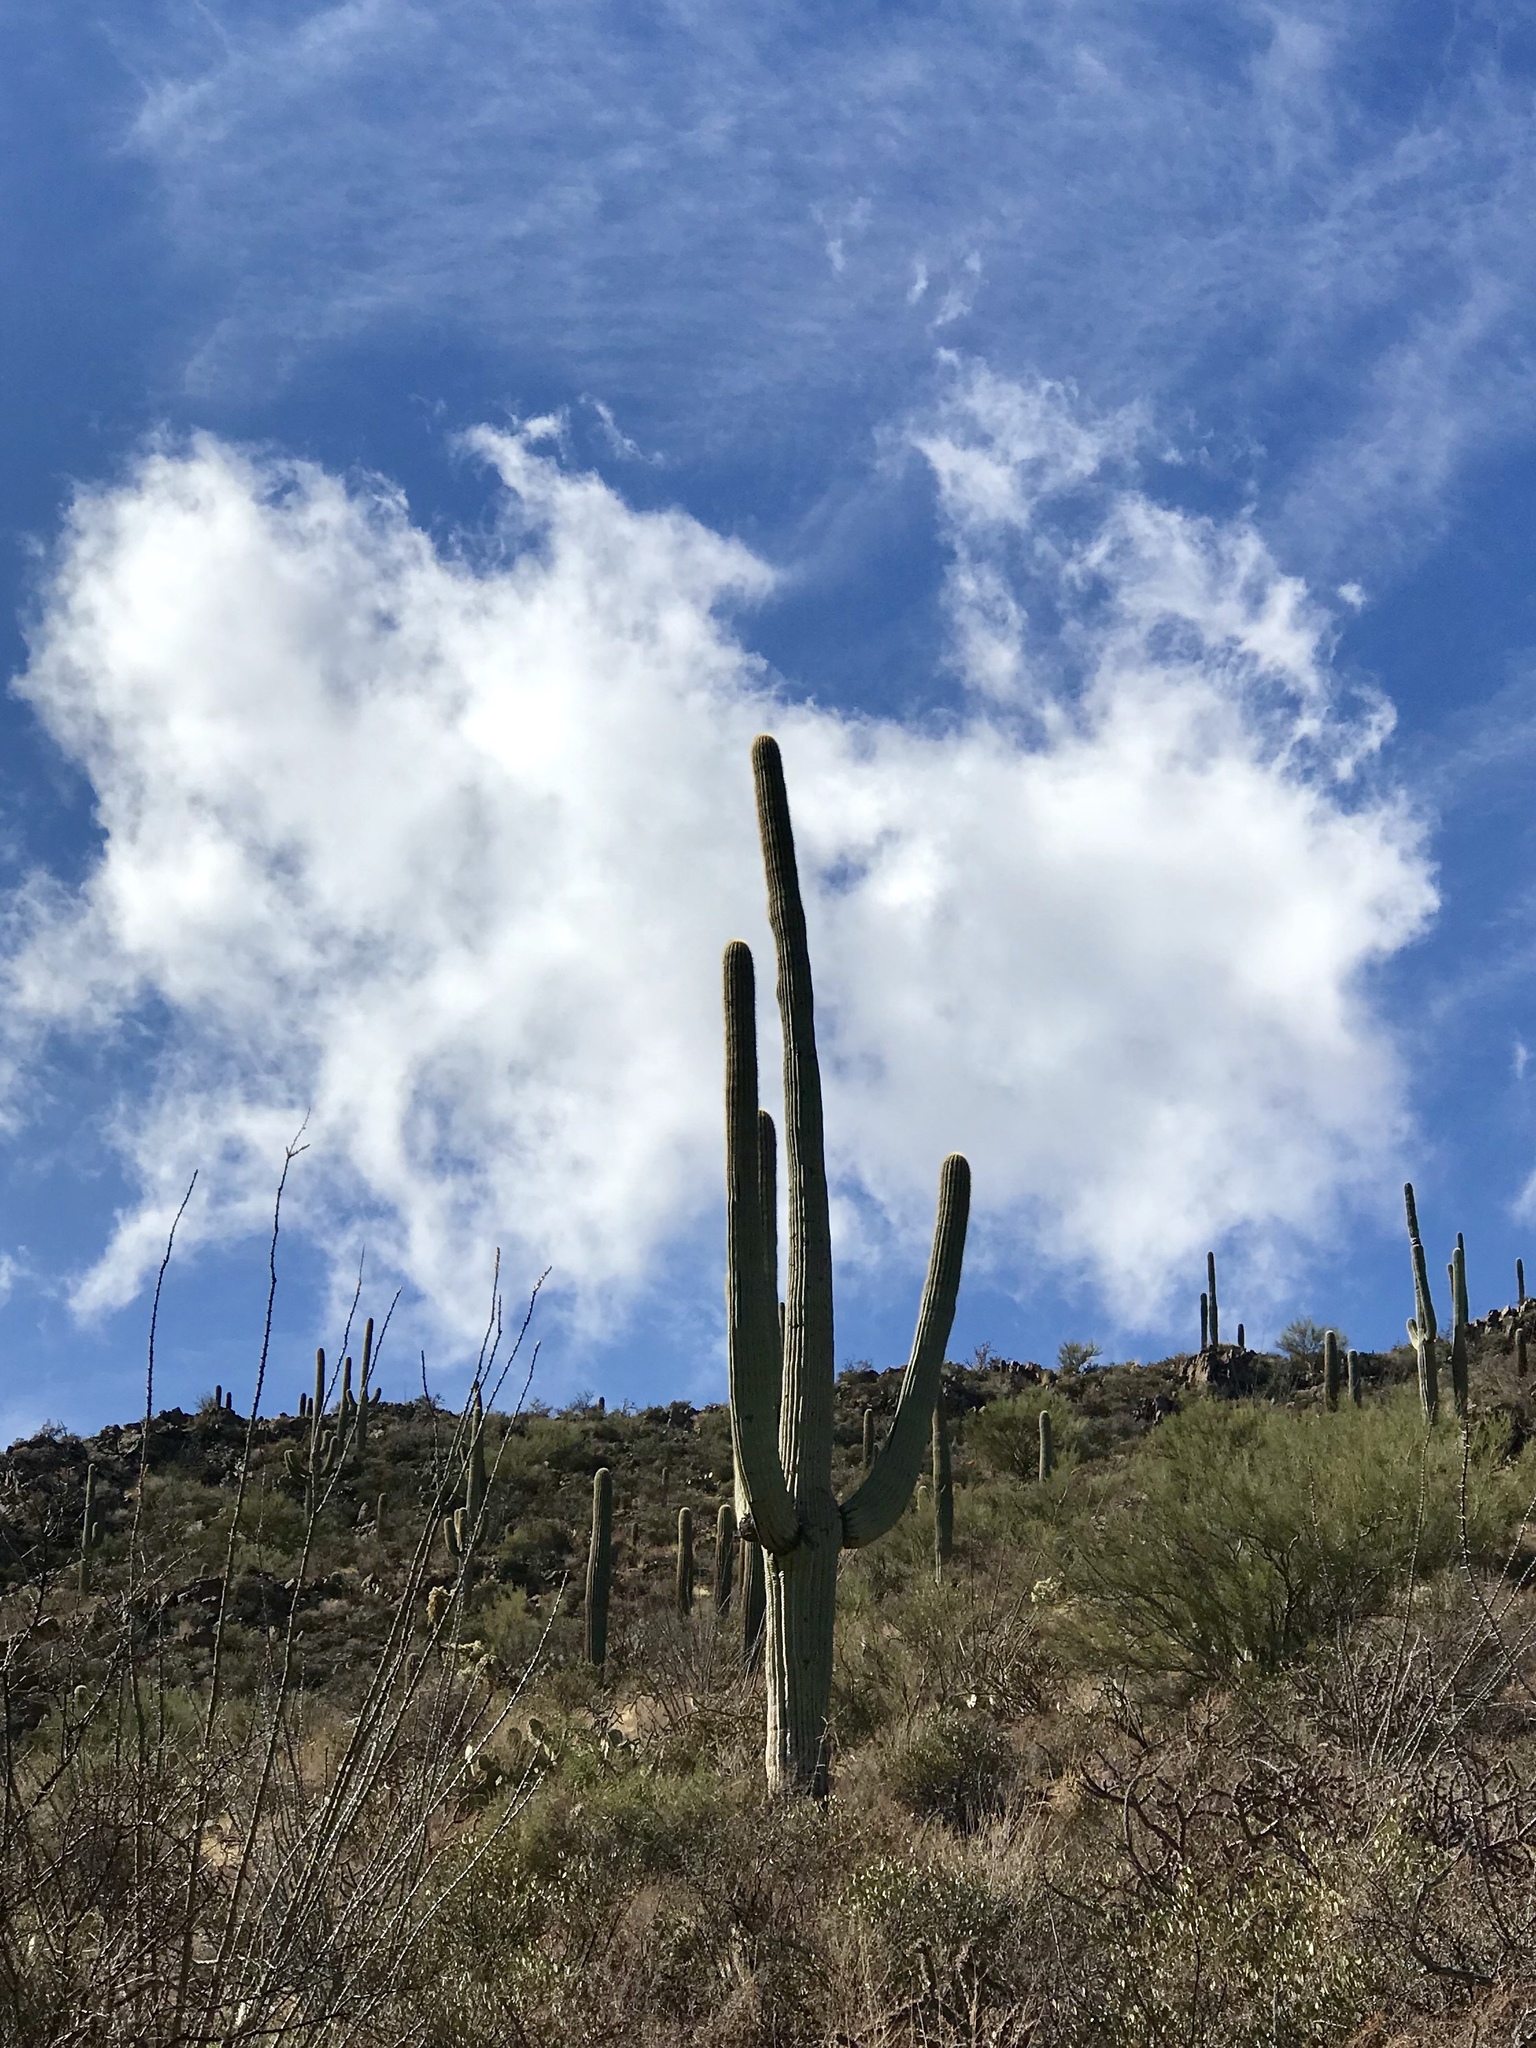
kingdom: Plantae
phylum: Tracheophyta
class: Magnoliopsida
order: Caryophyllales
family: Cactaceae
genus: Carnegiea
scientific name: Carnegiea gigantea
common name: Saguaro
